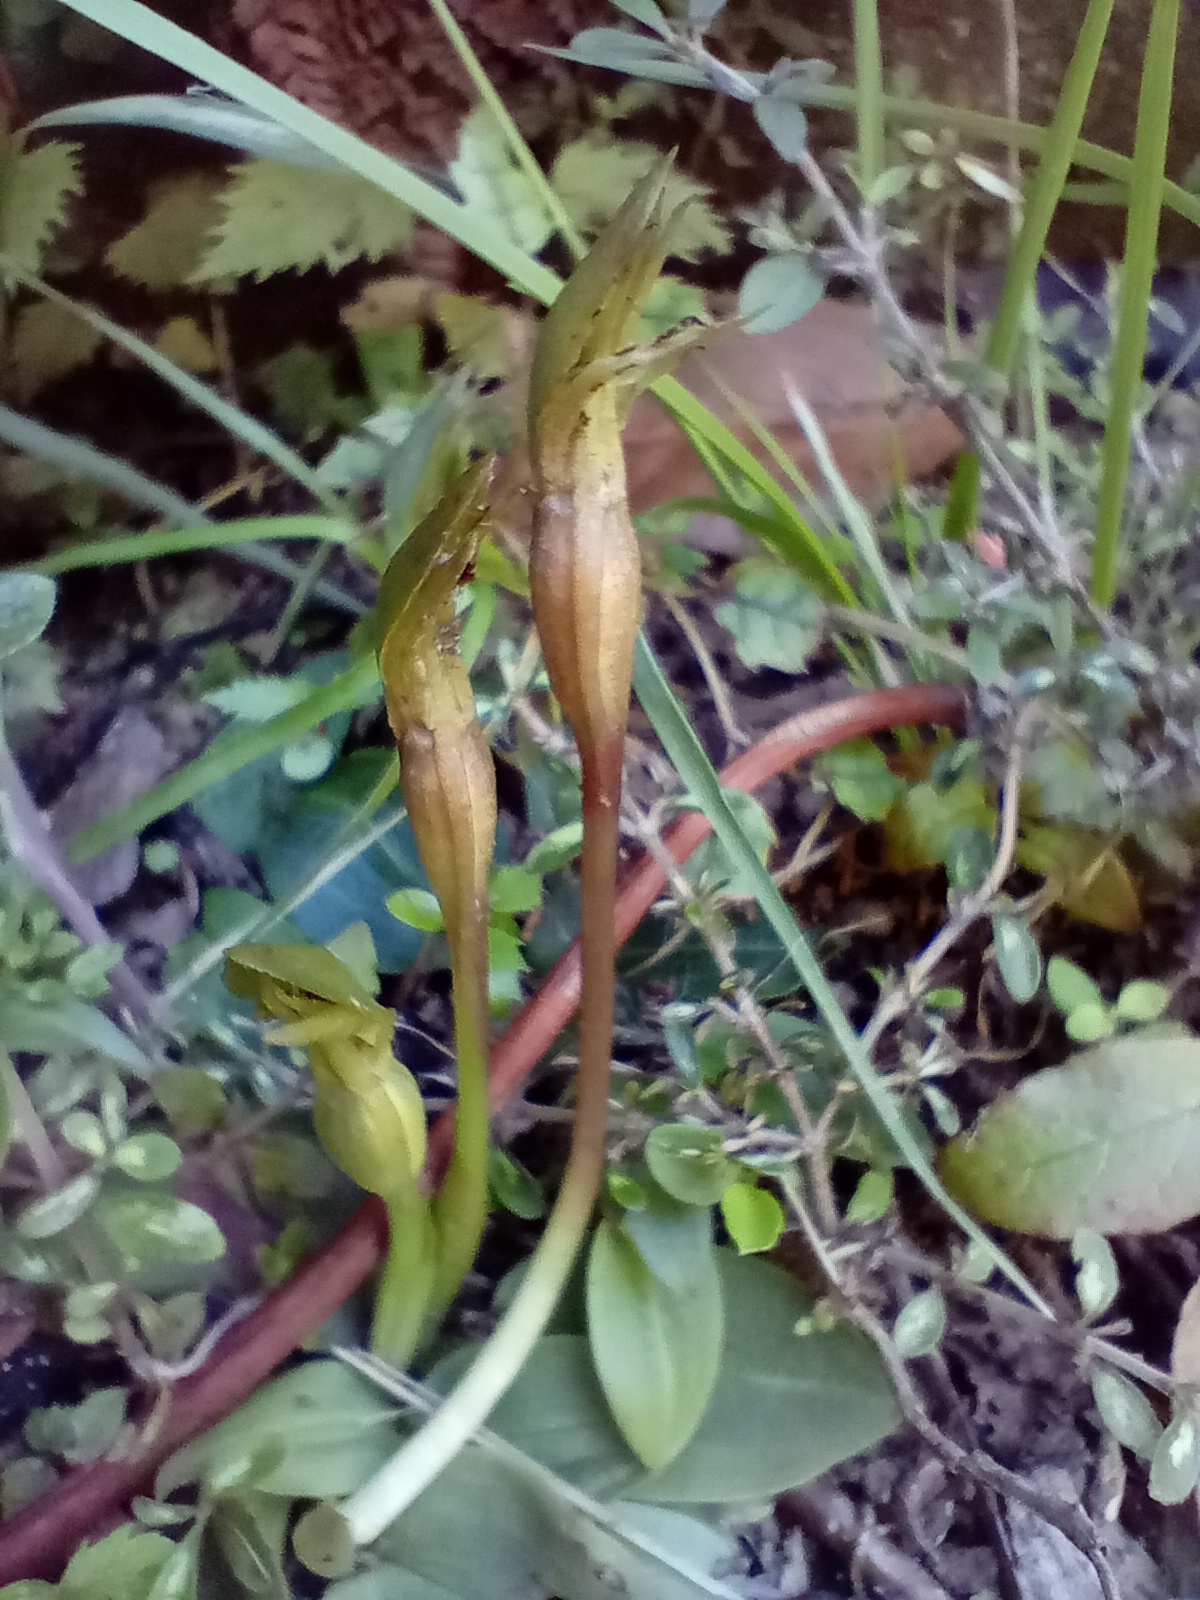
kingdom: Plantae
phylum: Tracheophyta
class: Liliopsida
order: Asparagales
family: Orchidaceae
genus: Chiloglottis
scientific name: Chiloglottis cornuta
